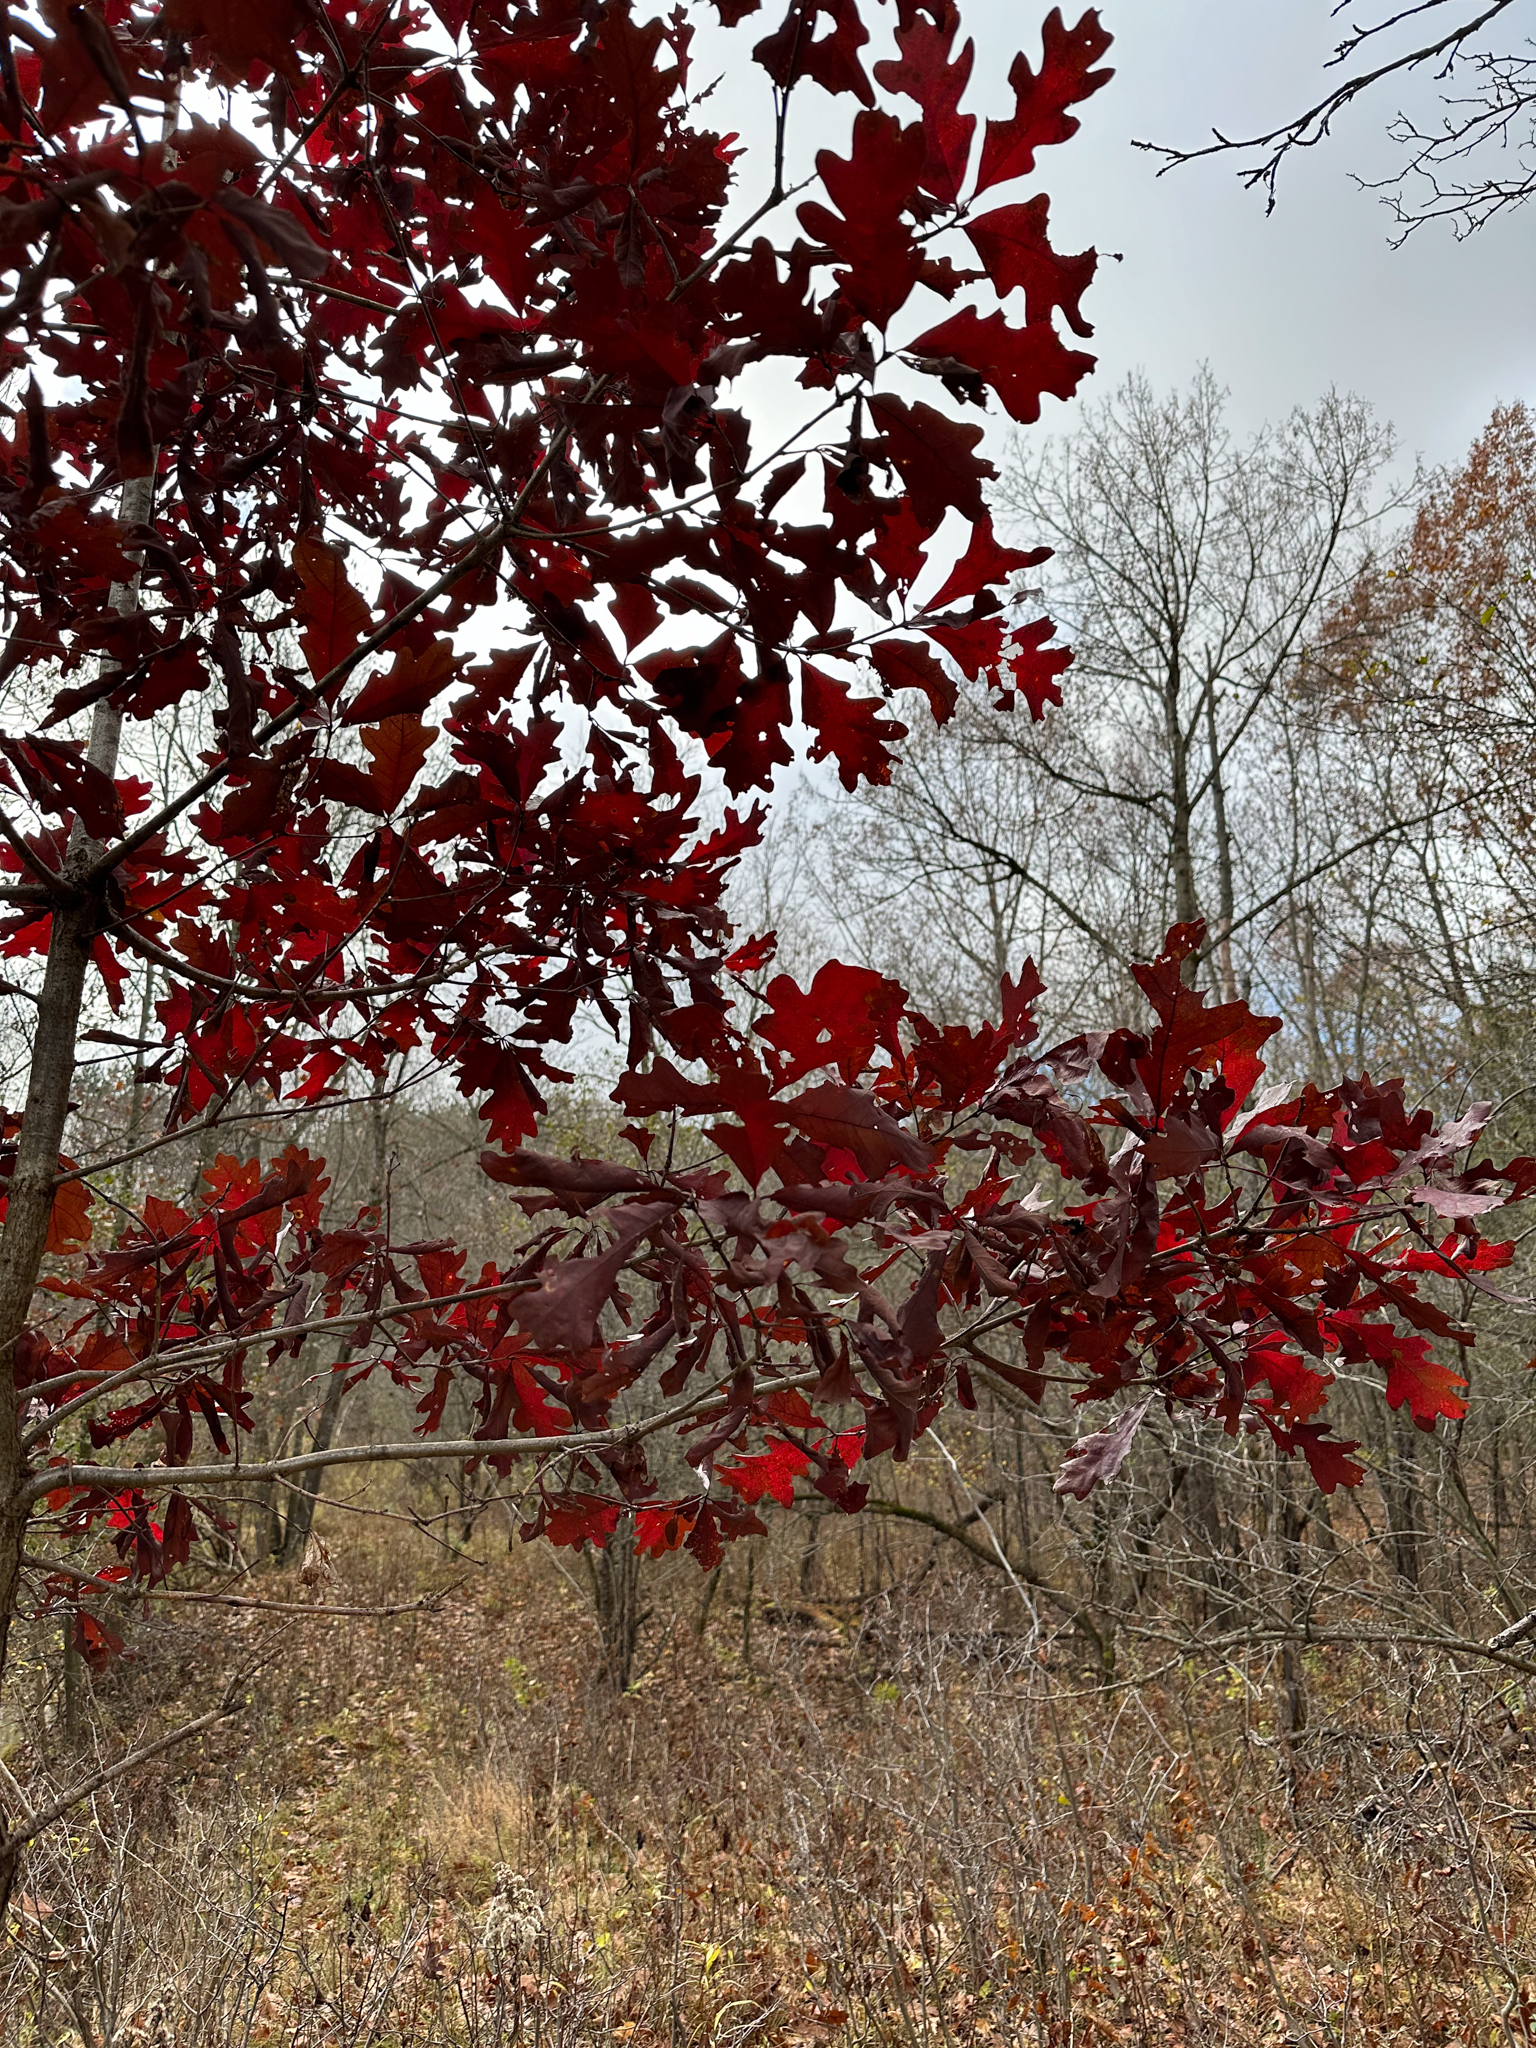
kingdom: Plantae
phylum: Tracheophyta
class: Magnoliopsida
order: Fagales
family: Fagaceae
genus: Quercus
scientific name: Quercus alba
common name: White oak
